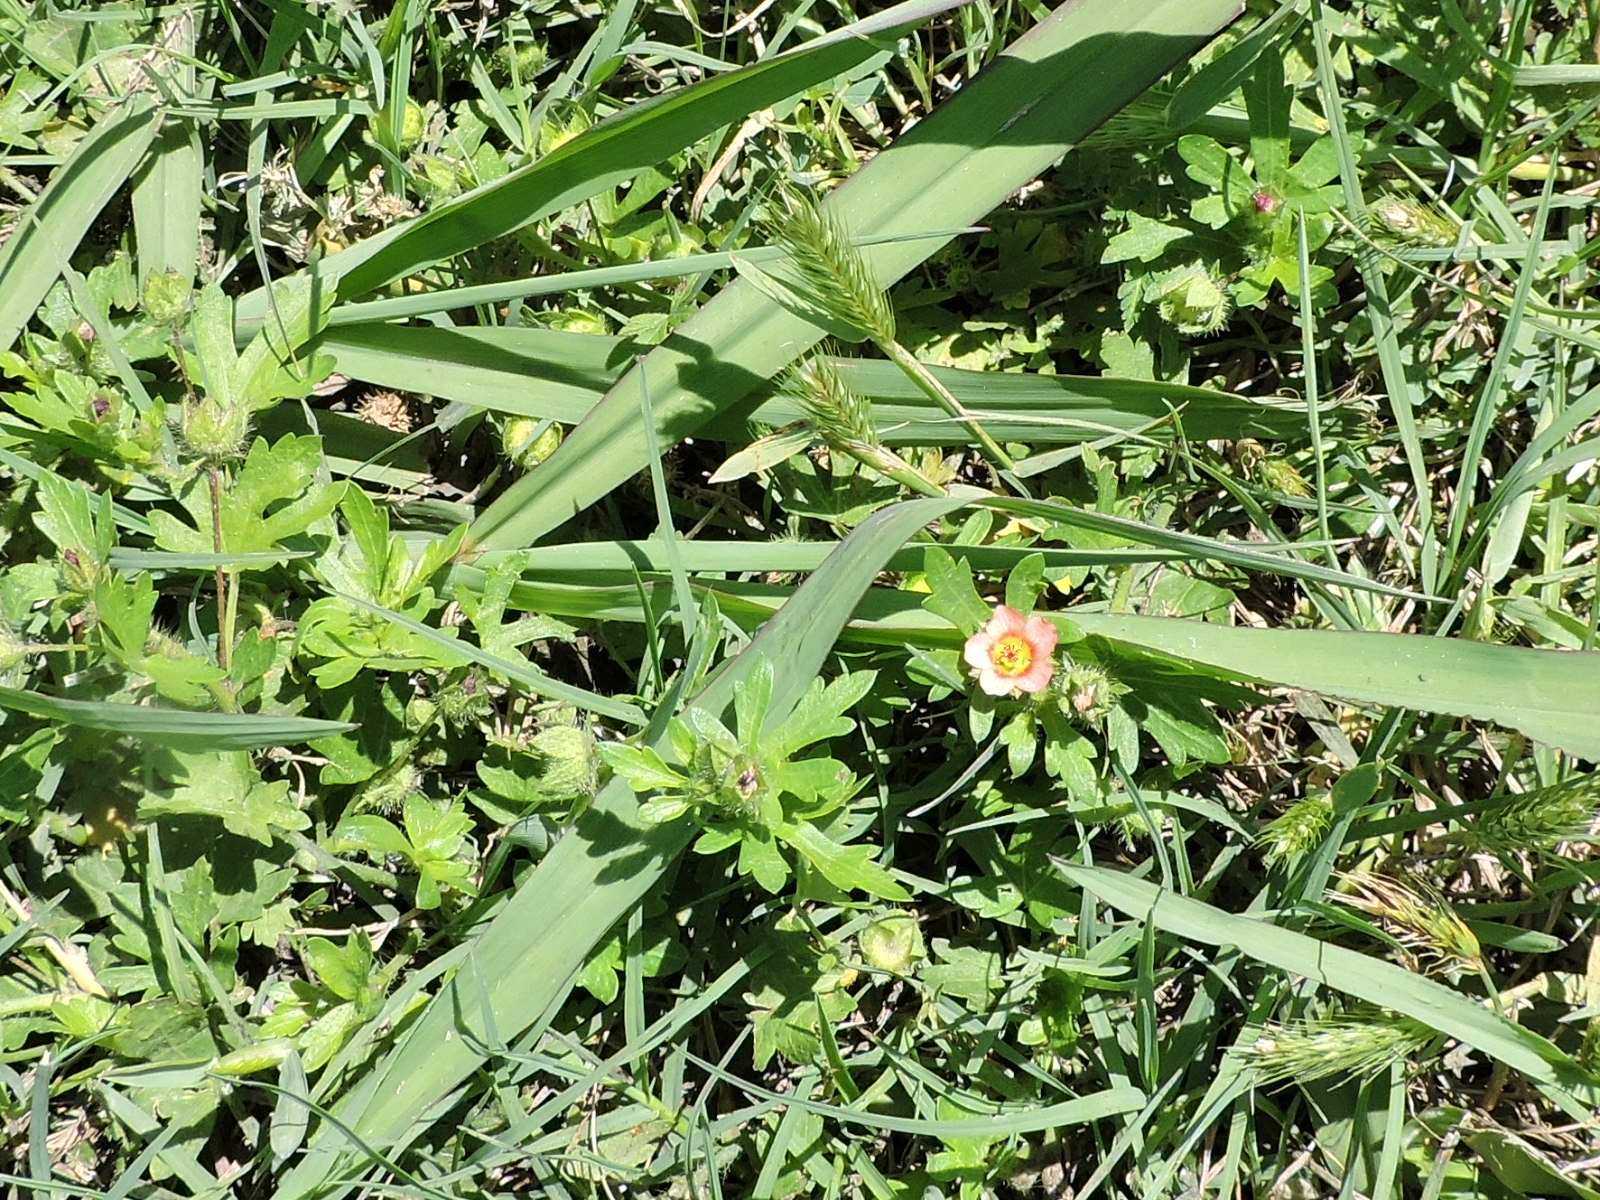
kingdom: Plantae
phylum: Tracheophyta
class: Magnoliopsida
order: Malvales
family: Malvaceae
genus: Modiola
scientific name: Modiola caroliniana
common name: Carolina bristlemallow
